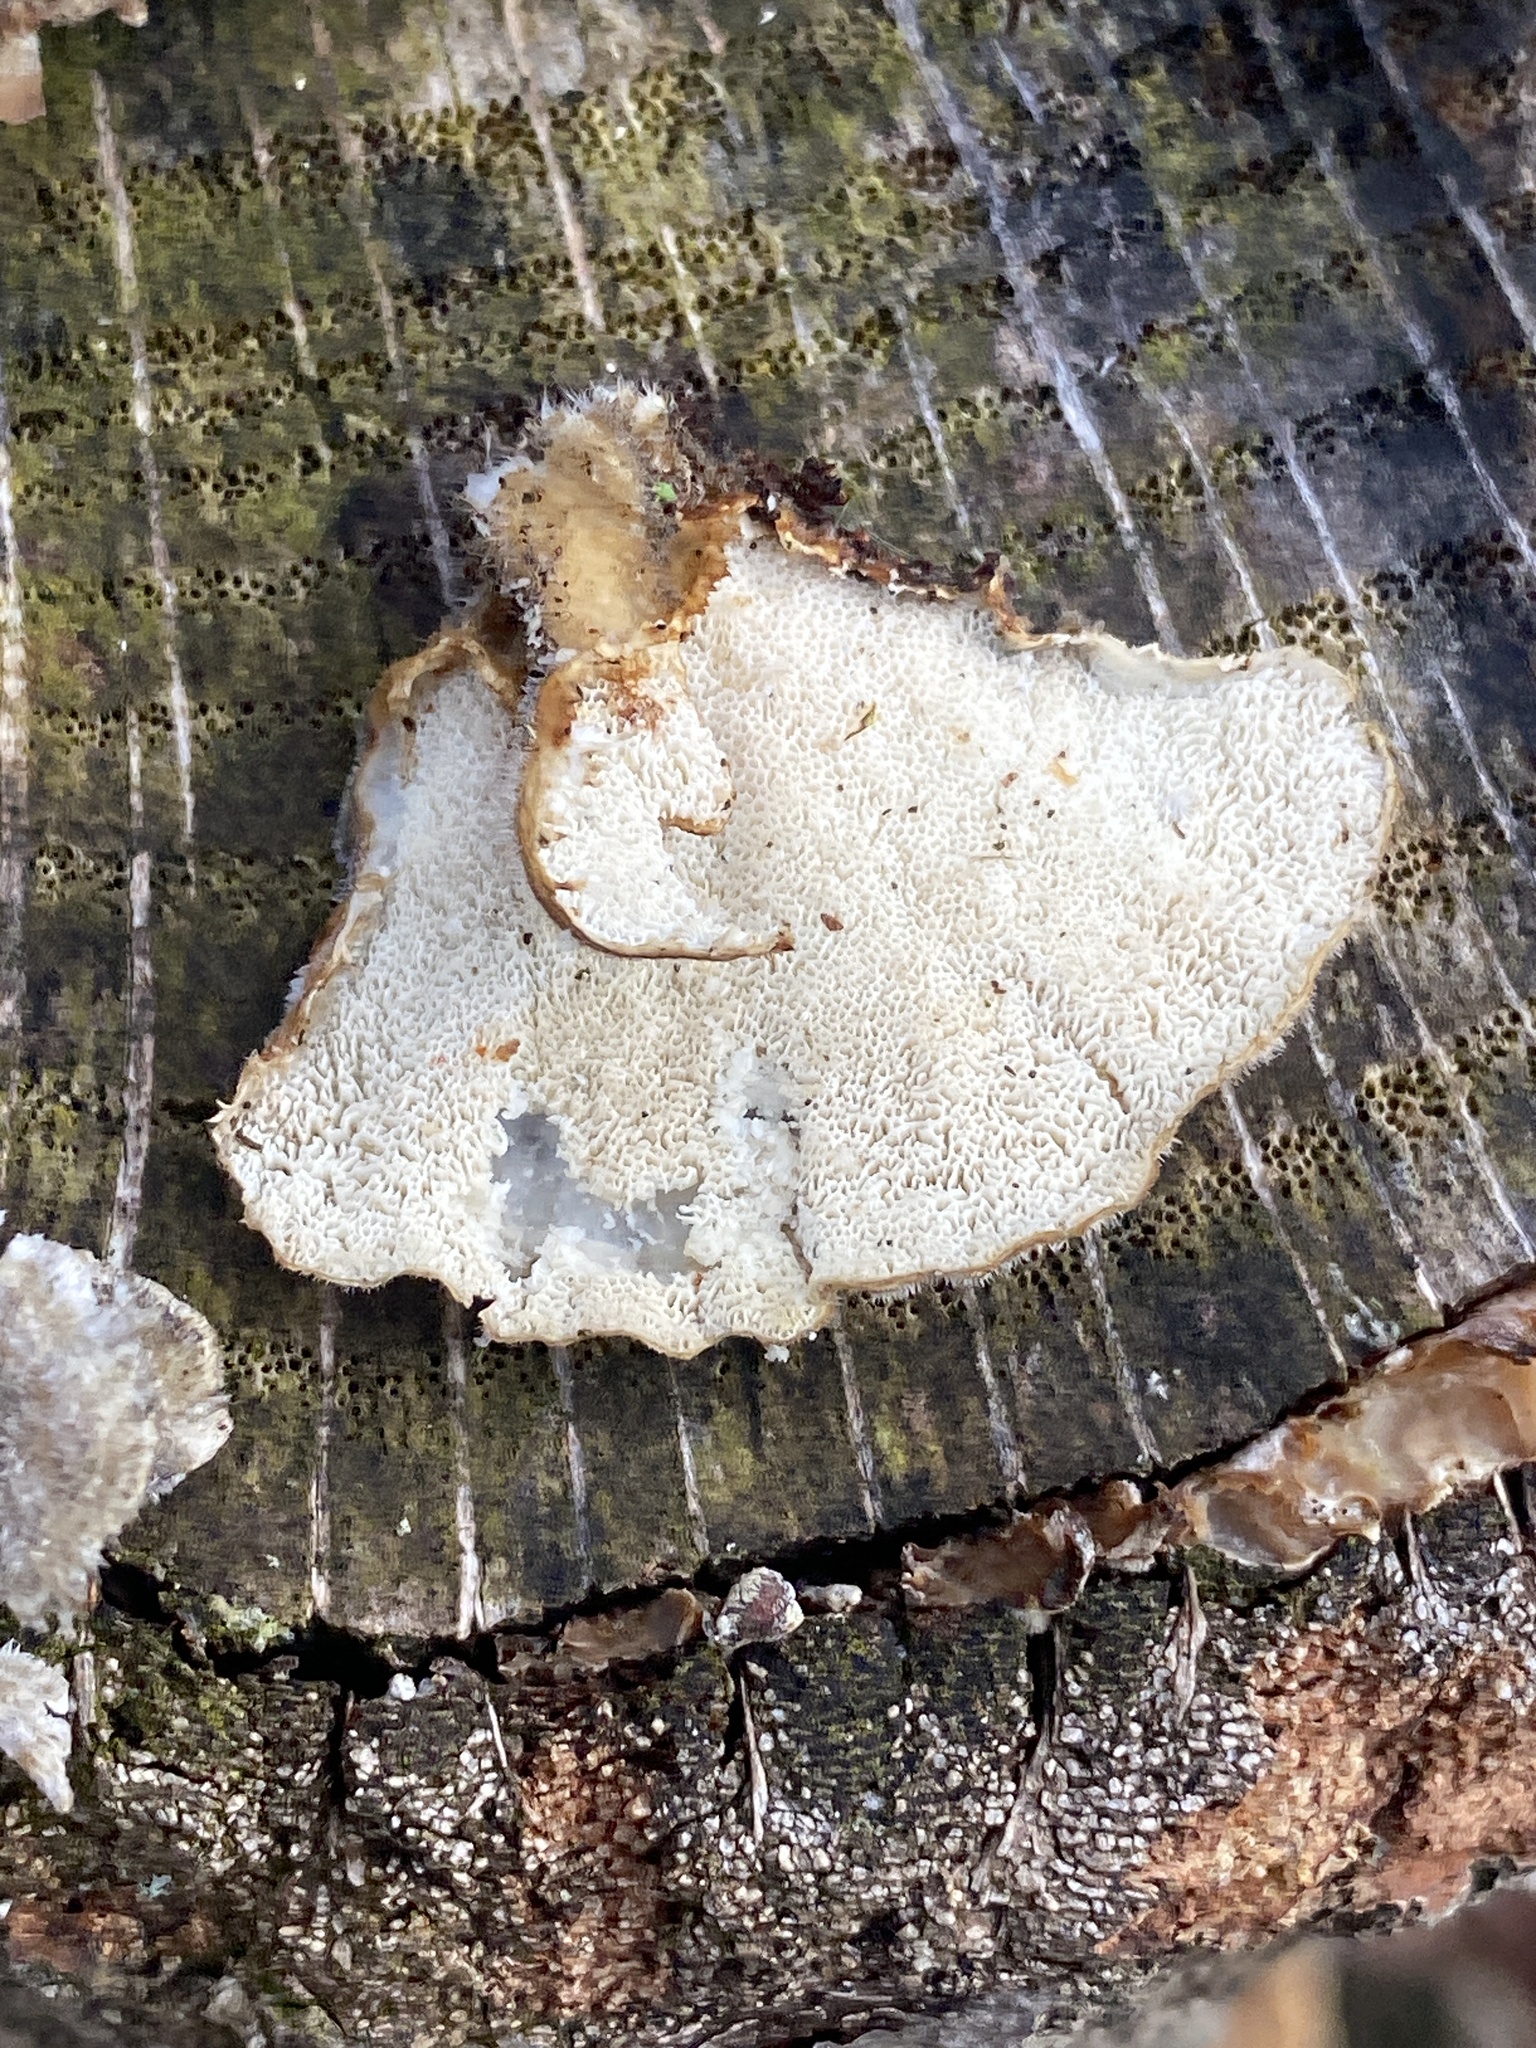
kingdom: Fungi
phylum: Basidiomycota
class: Agaricomycetes
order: Polyporales
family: Polyporaceae
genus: Trametes
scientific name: Trametes versicolor
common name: Turkeytail
